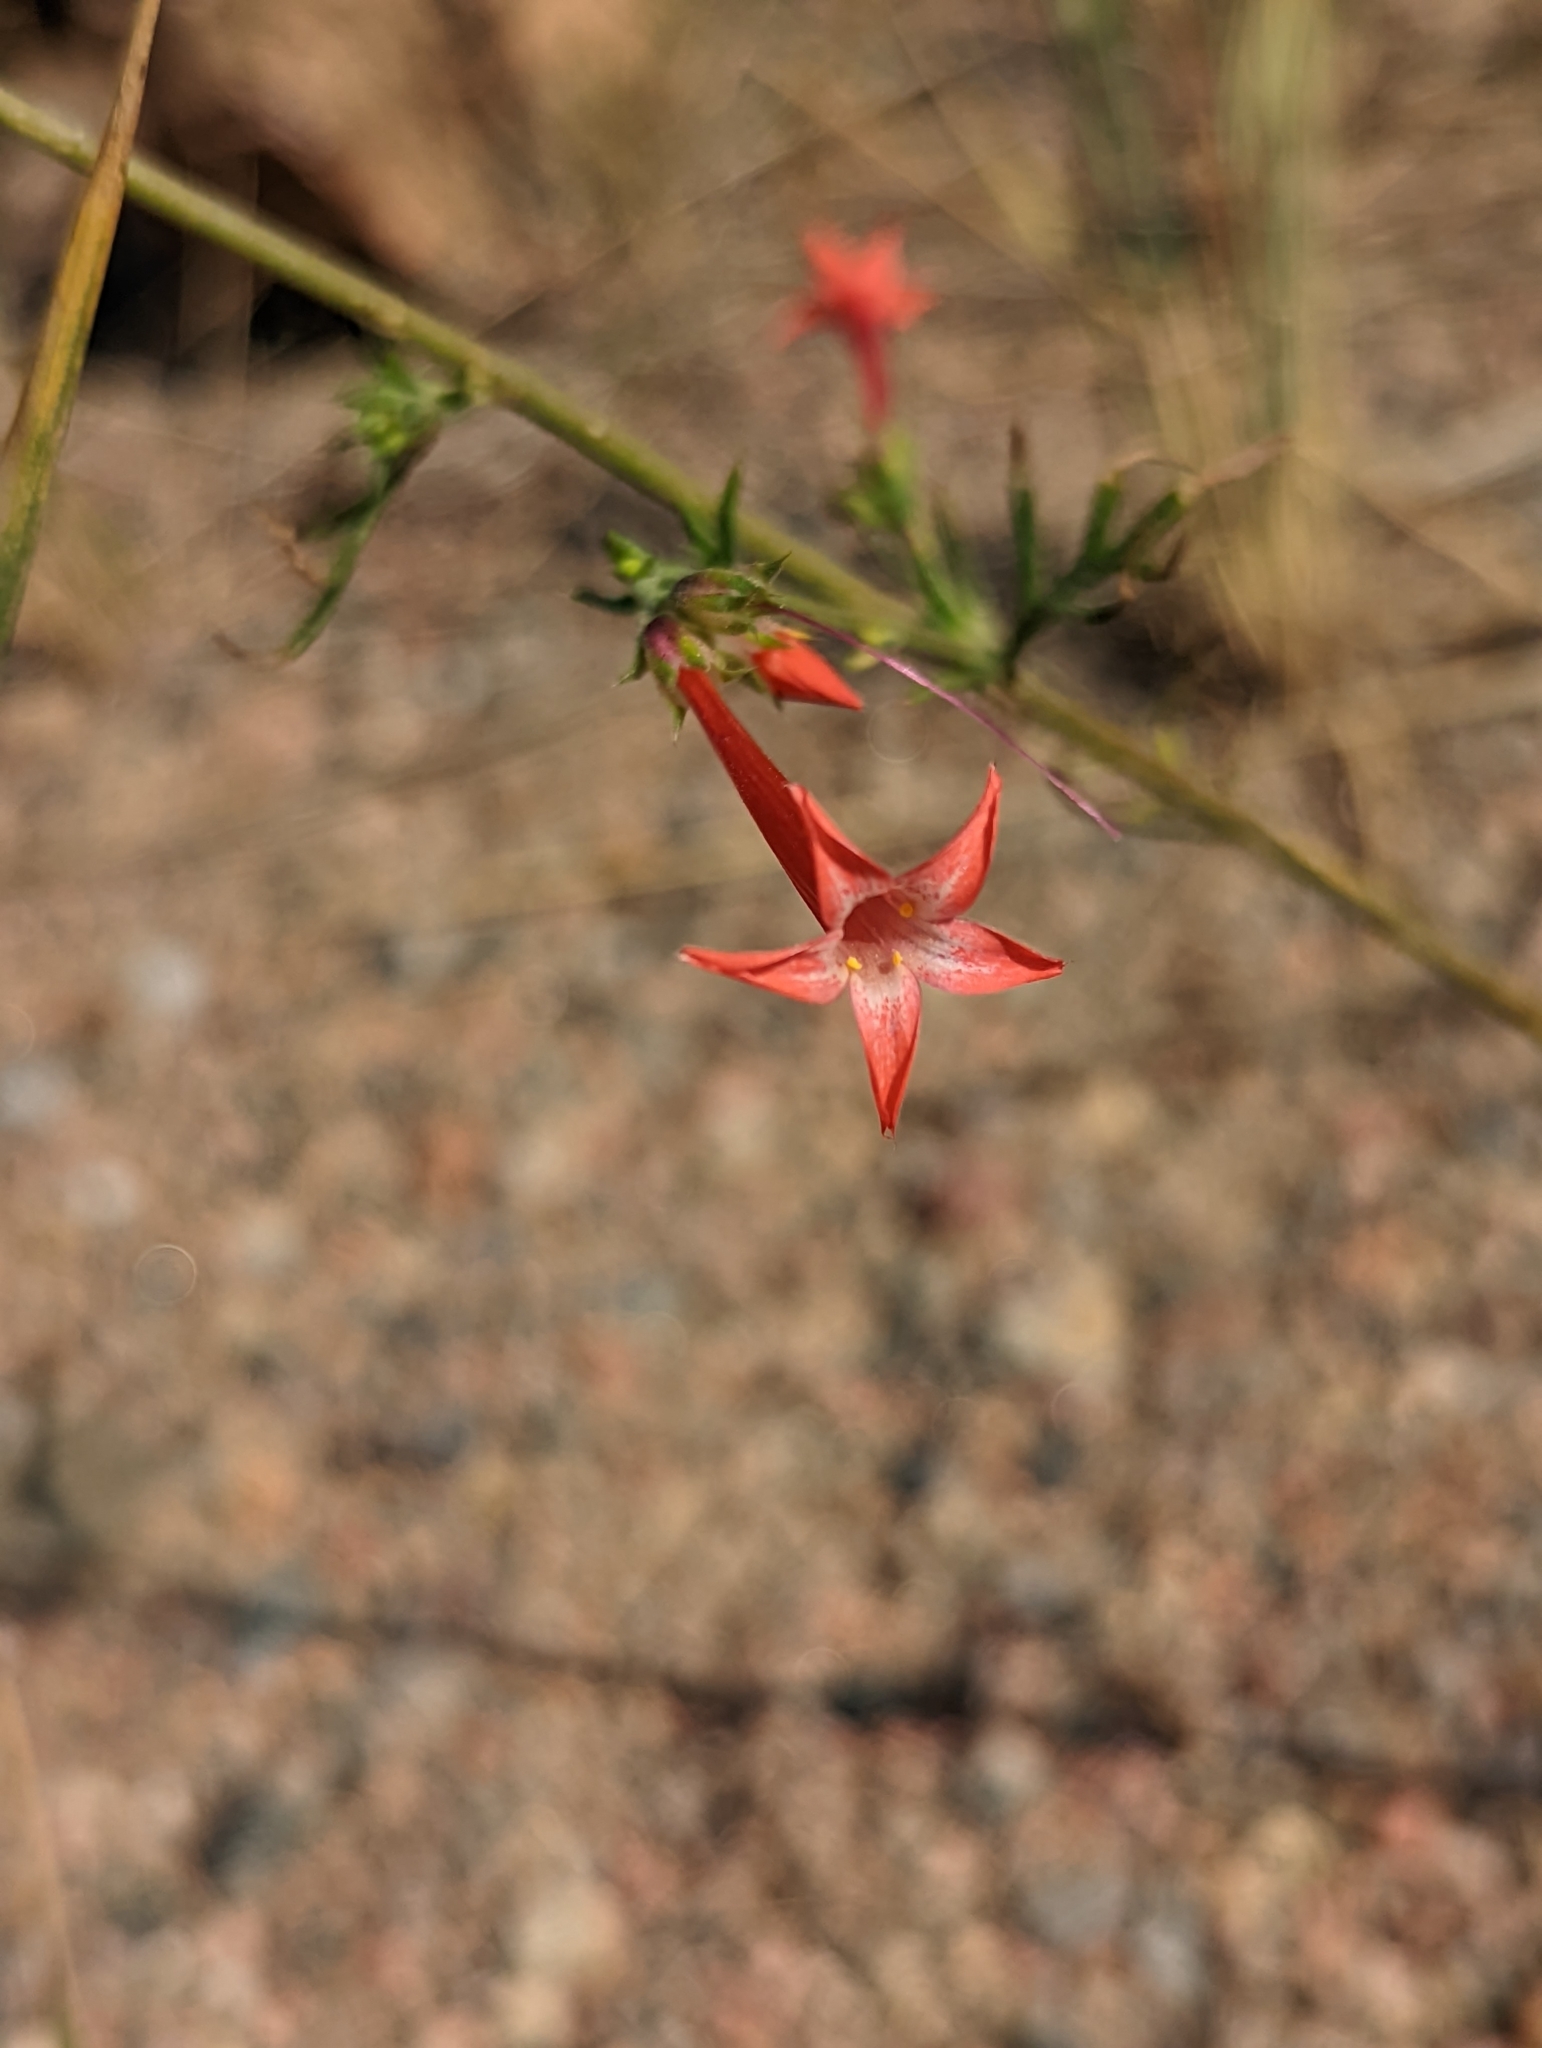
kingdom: Plantae
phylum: Tracheophyta
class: Magnoliopsida
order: Ericales
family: Polemoniaceae
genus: Ipomopsis
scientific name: Ipomopsis aggregata
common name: Scarlet gilia
